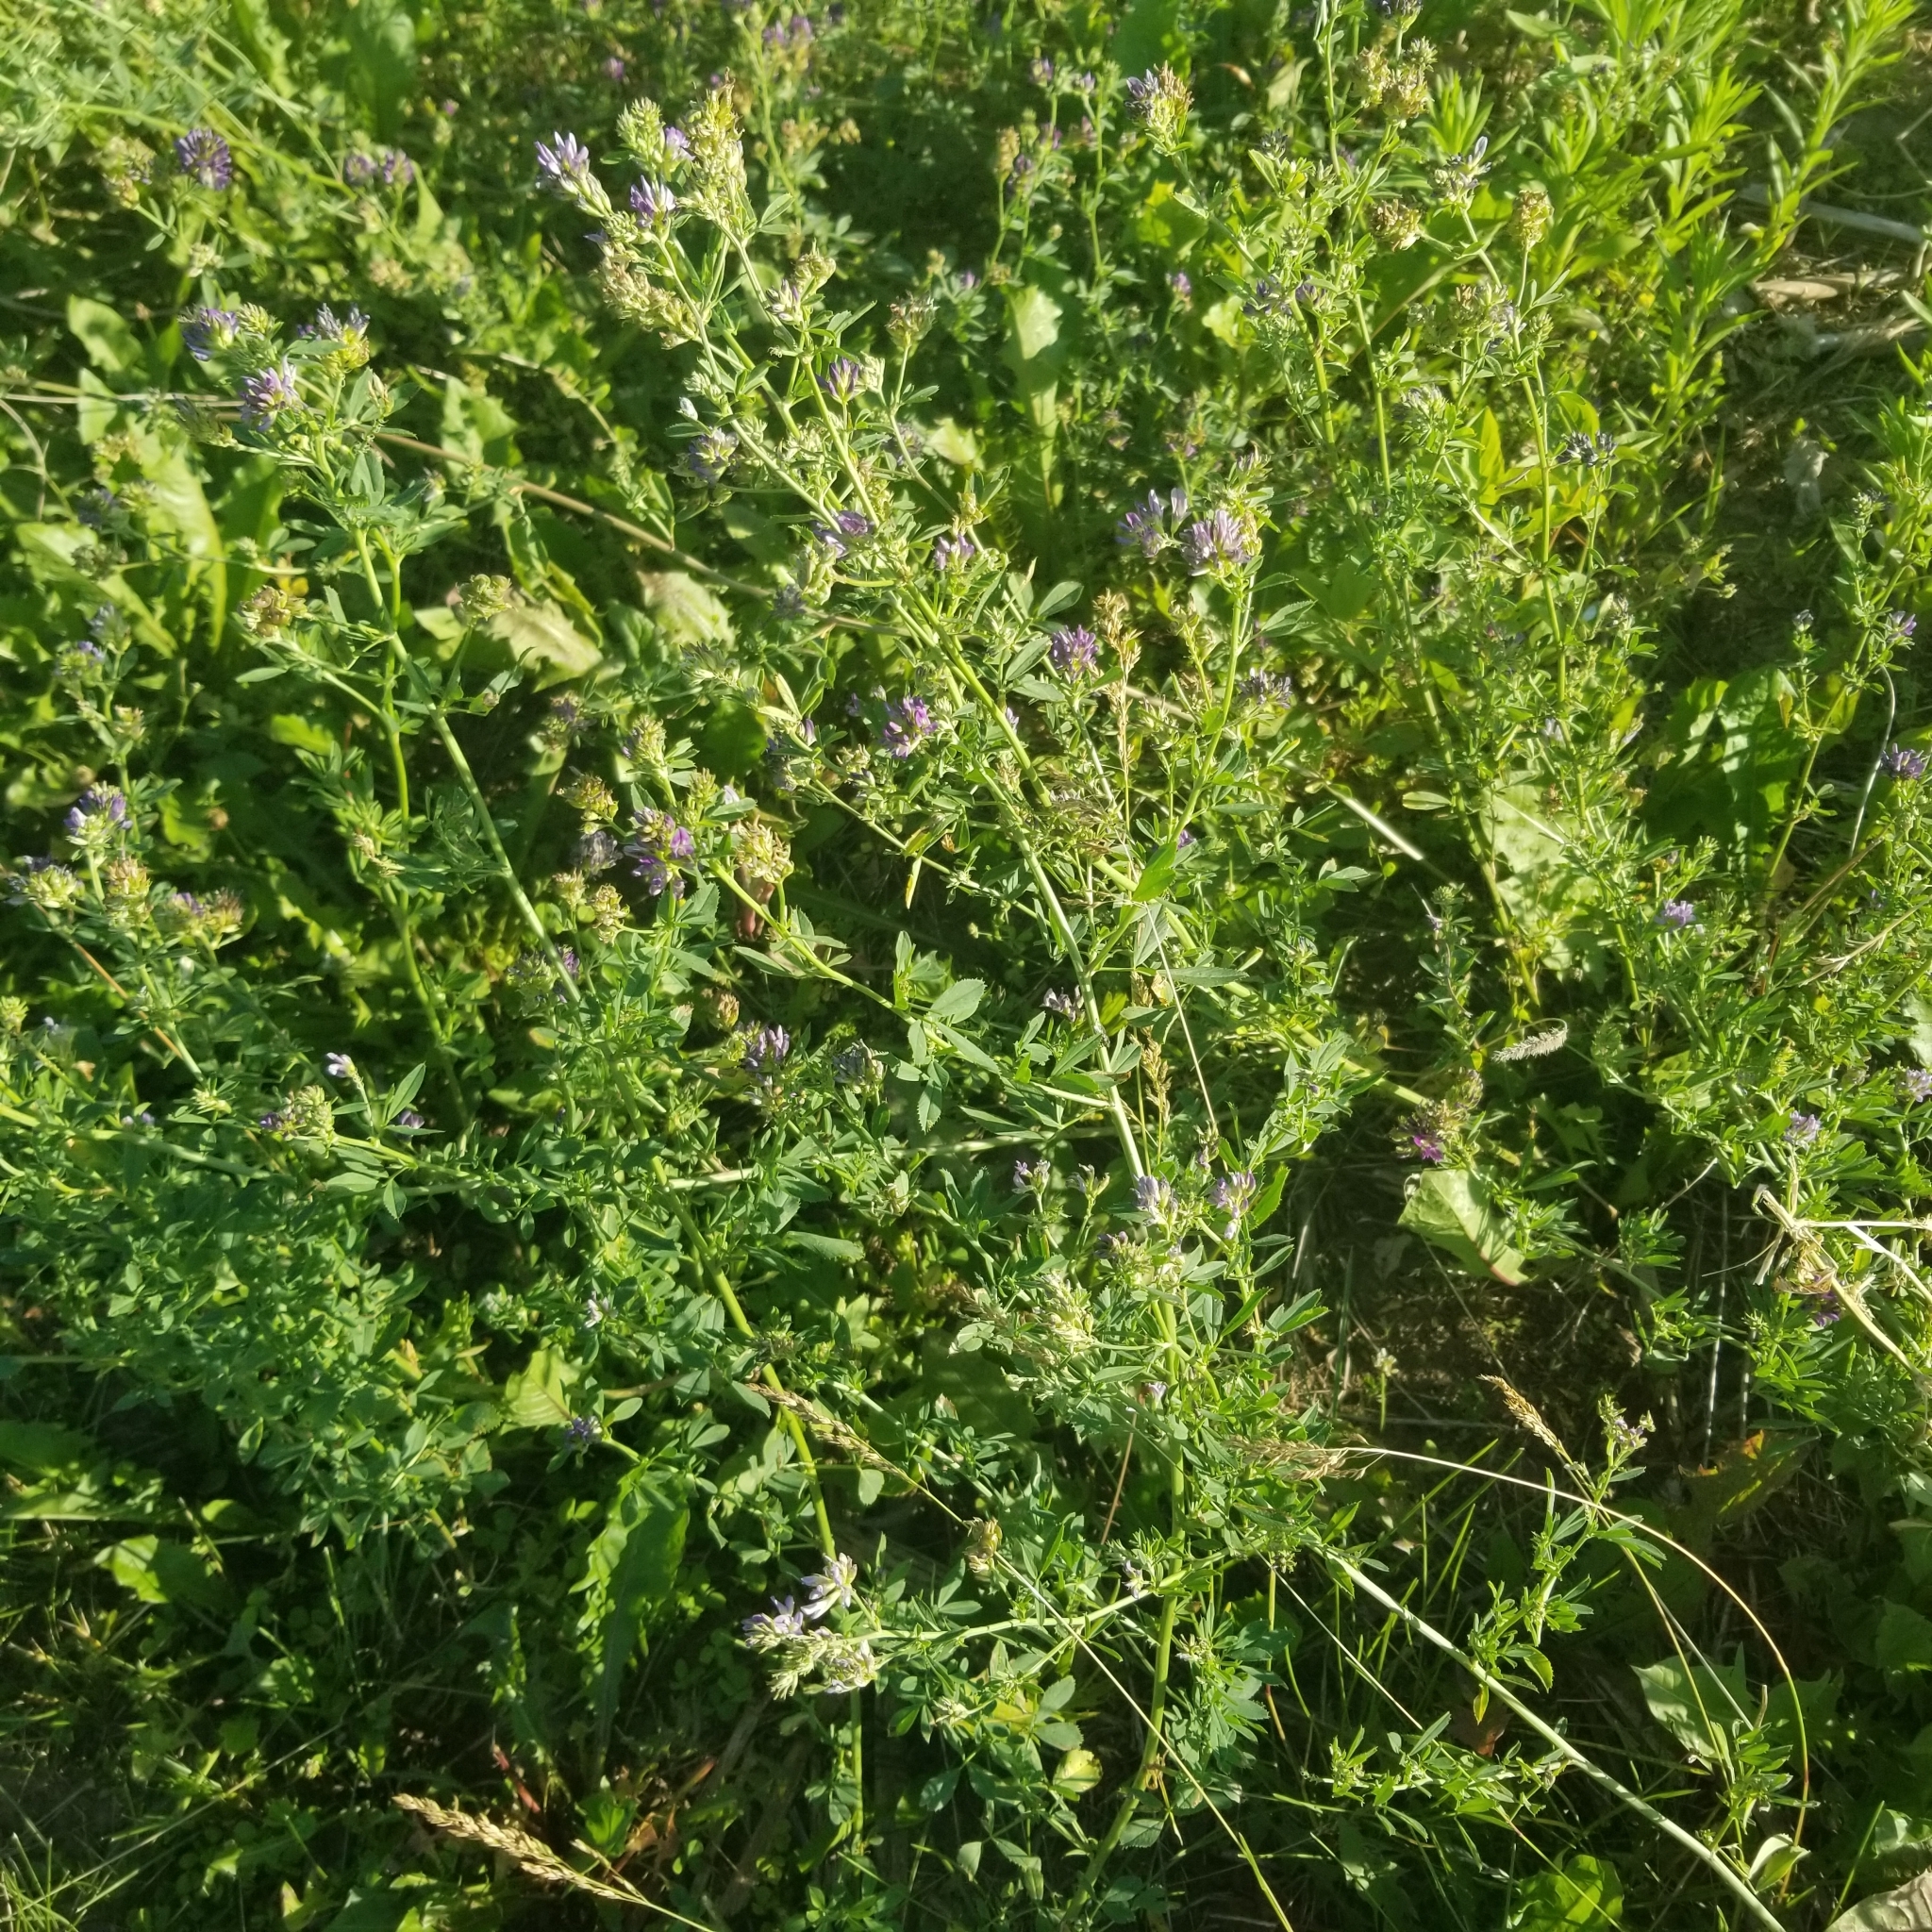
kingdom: Plantae
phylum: Tracheophyta
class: Magnoliopsida
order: Fabales
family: Fabaceae
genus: Medicago
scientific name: Medicago sativa
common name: Alfalfa
